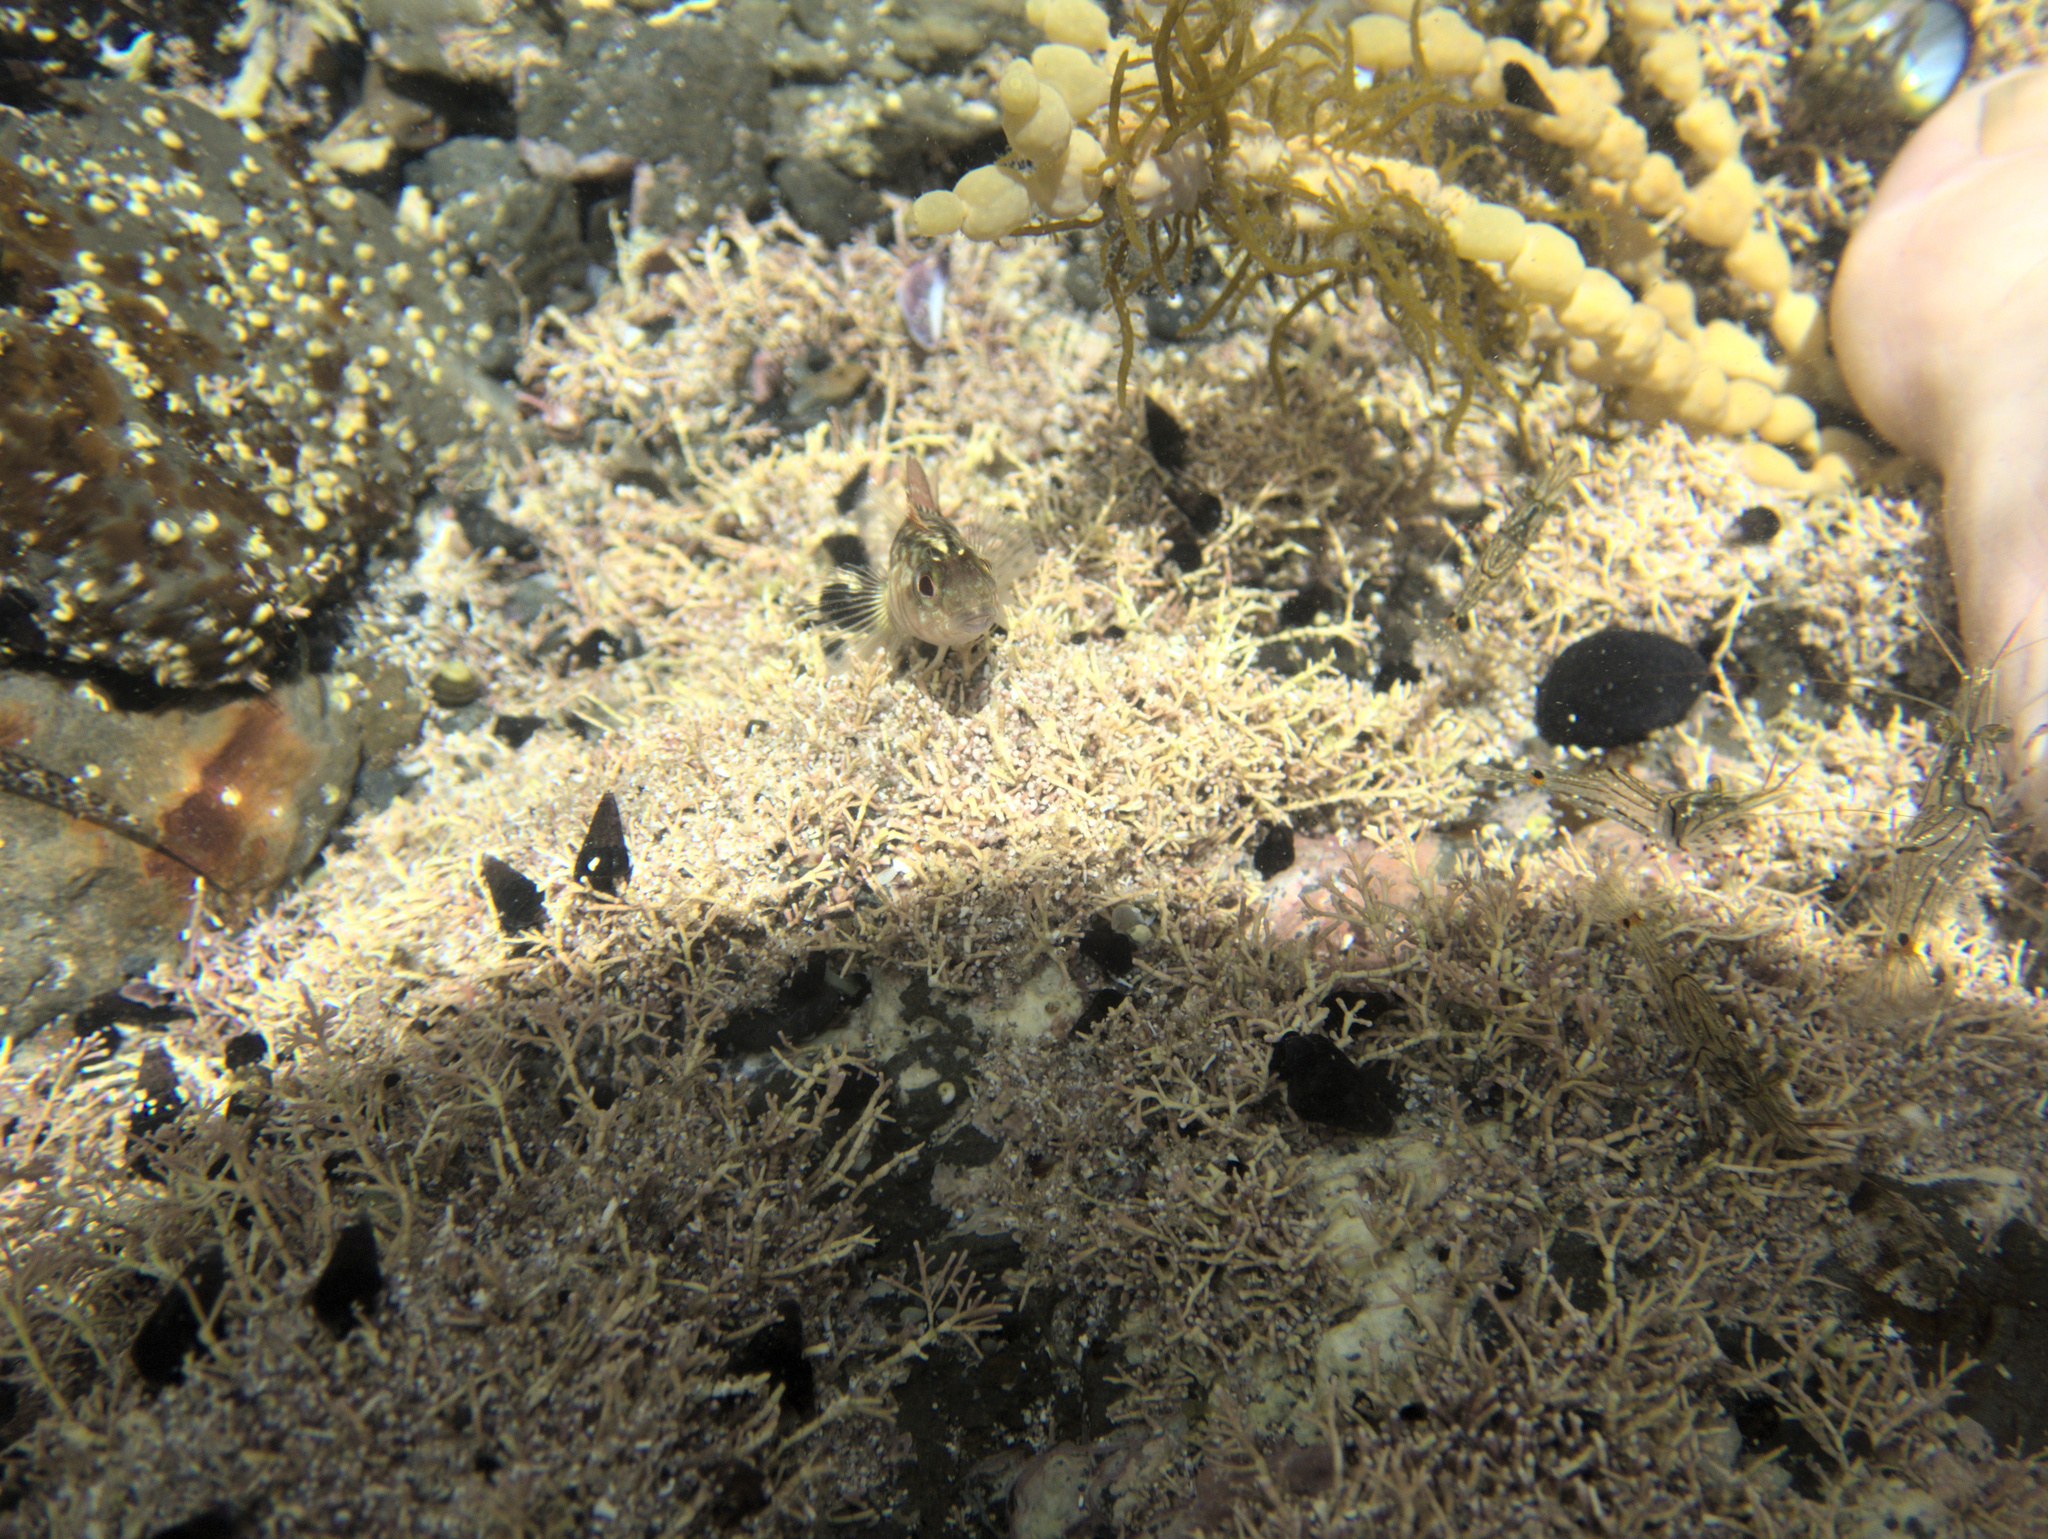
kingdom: Animalia
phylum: Chordata
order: Perciformes
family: Tripterygiidae
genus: Forsterygion
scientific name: Forsterygion lapillum
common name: Common triplefin
